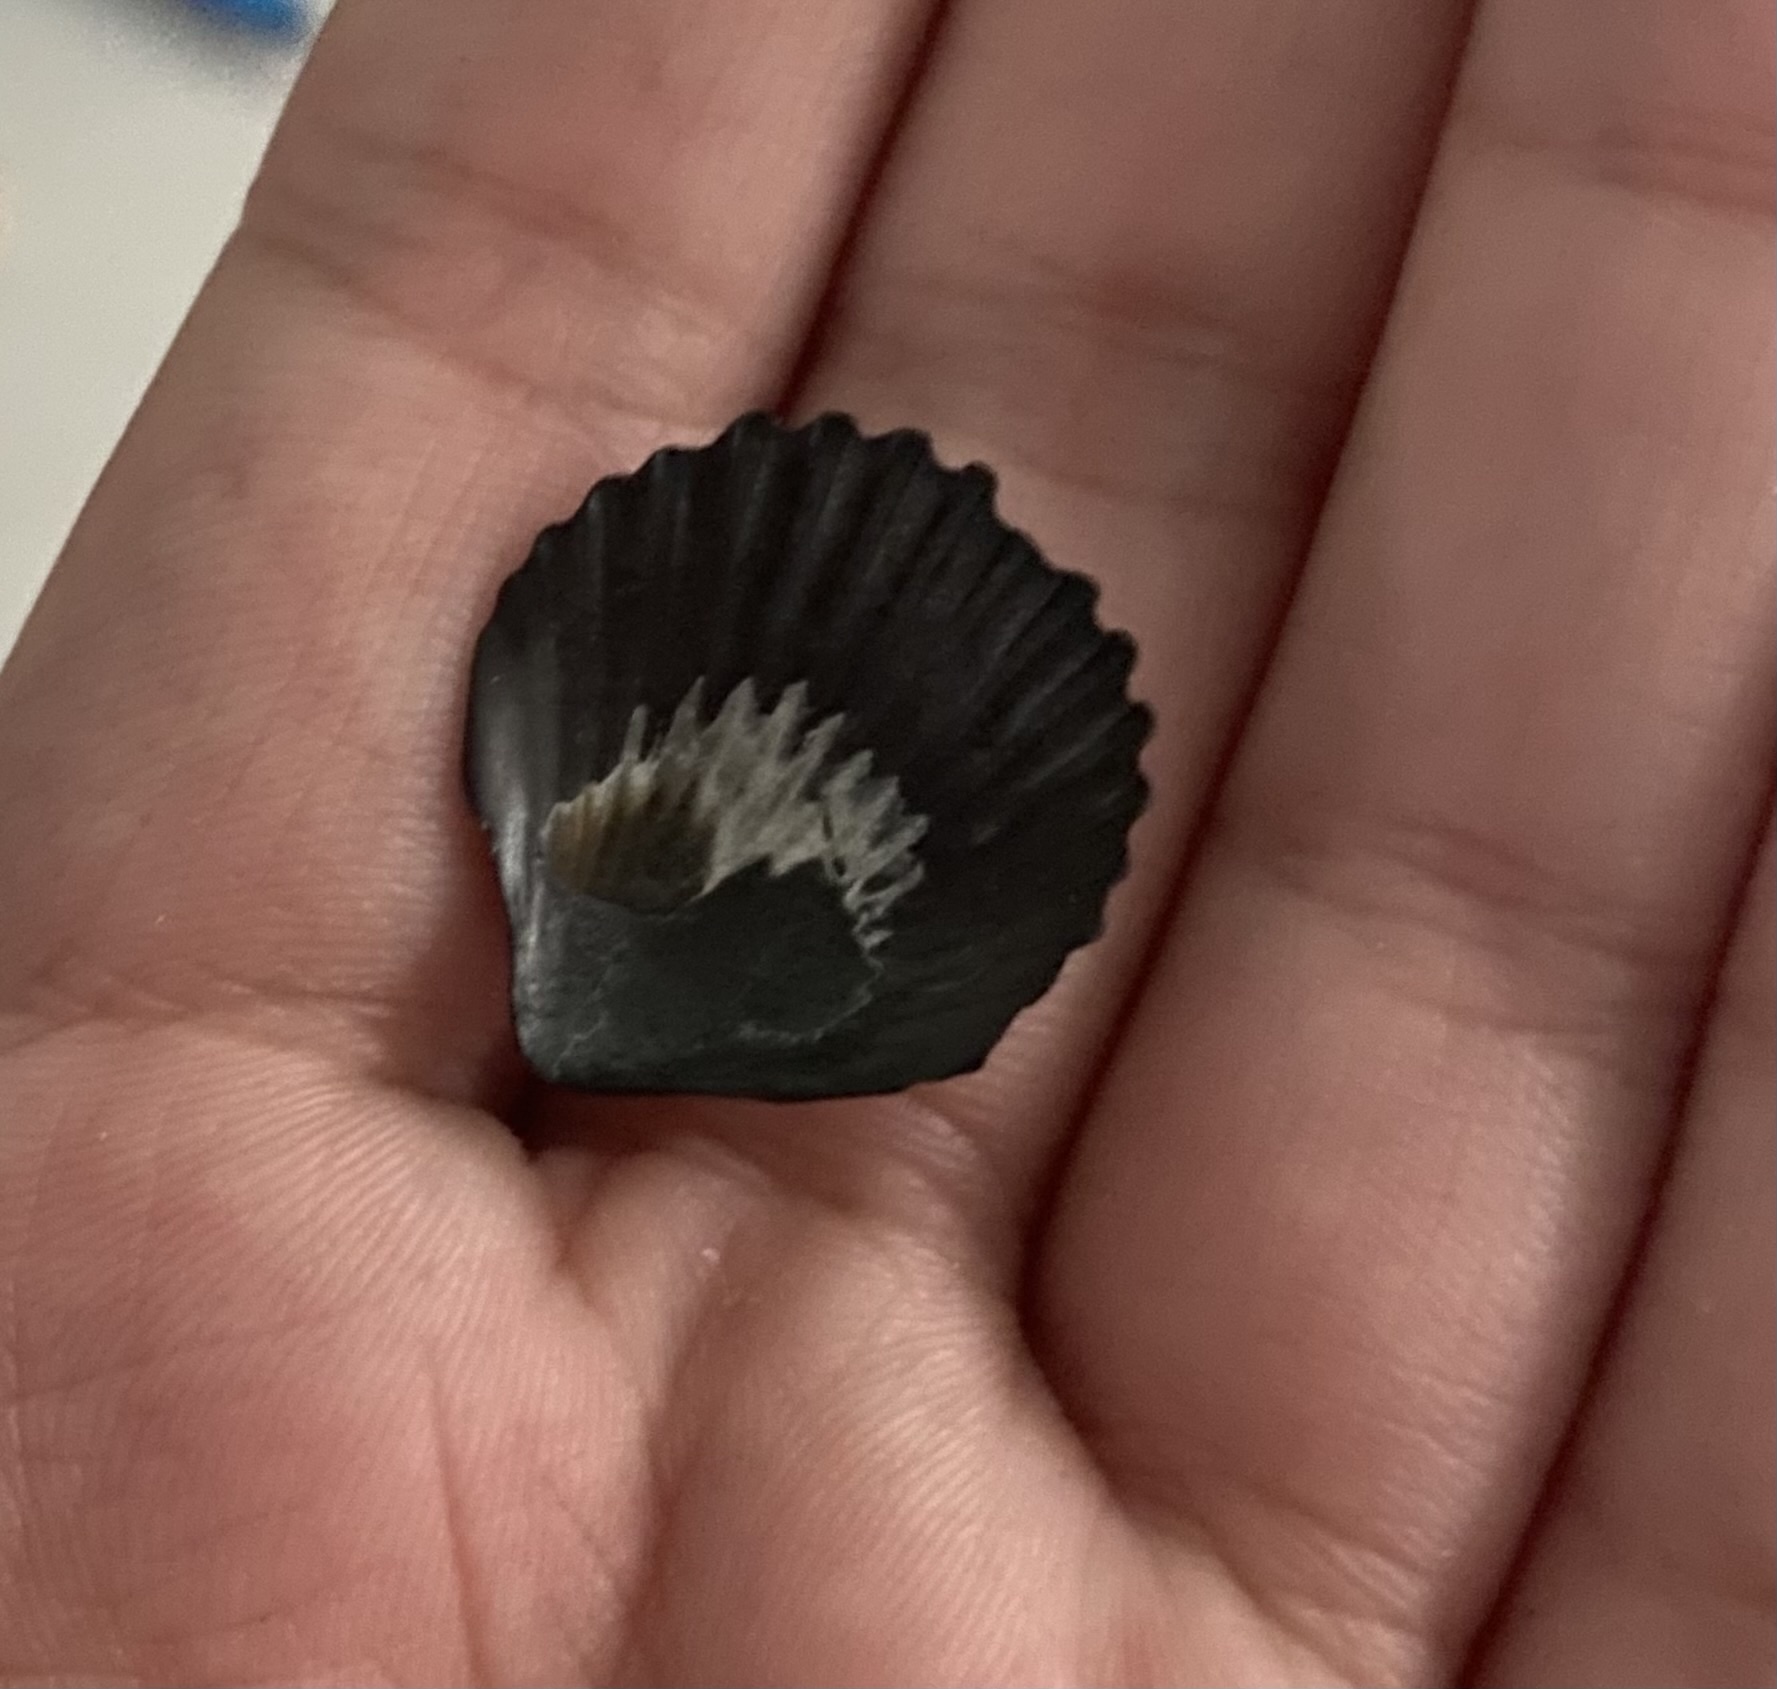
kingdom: Animalia
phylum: Mollusca
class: Bivalvia
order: Pectinida
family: Pectinidae
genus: Argopecten
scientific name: Argopecten irradians
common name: Atlantic bay scallop
